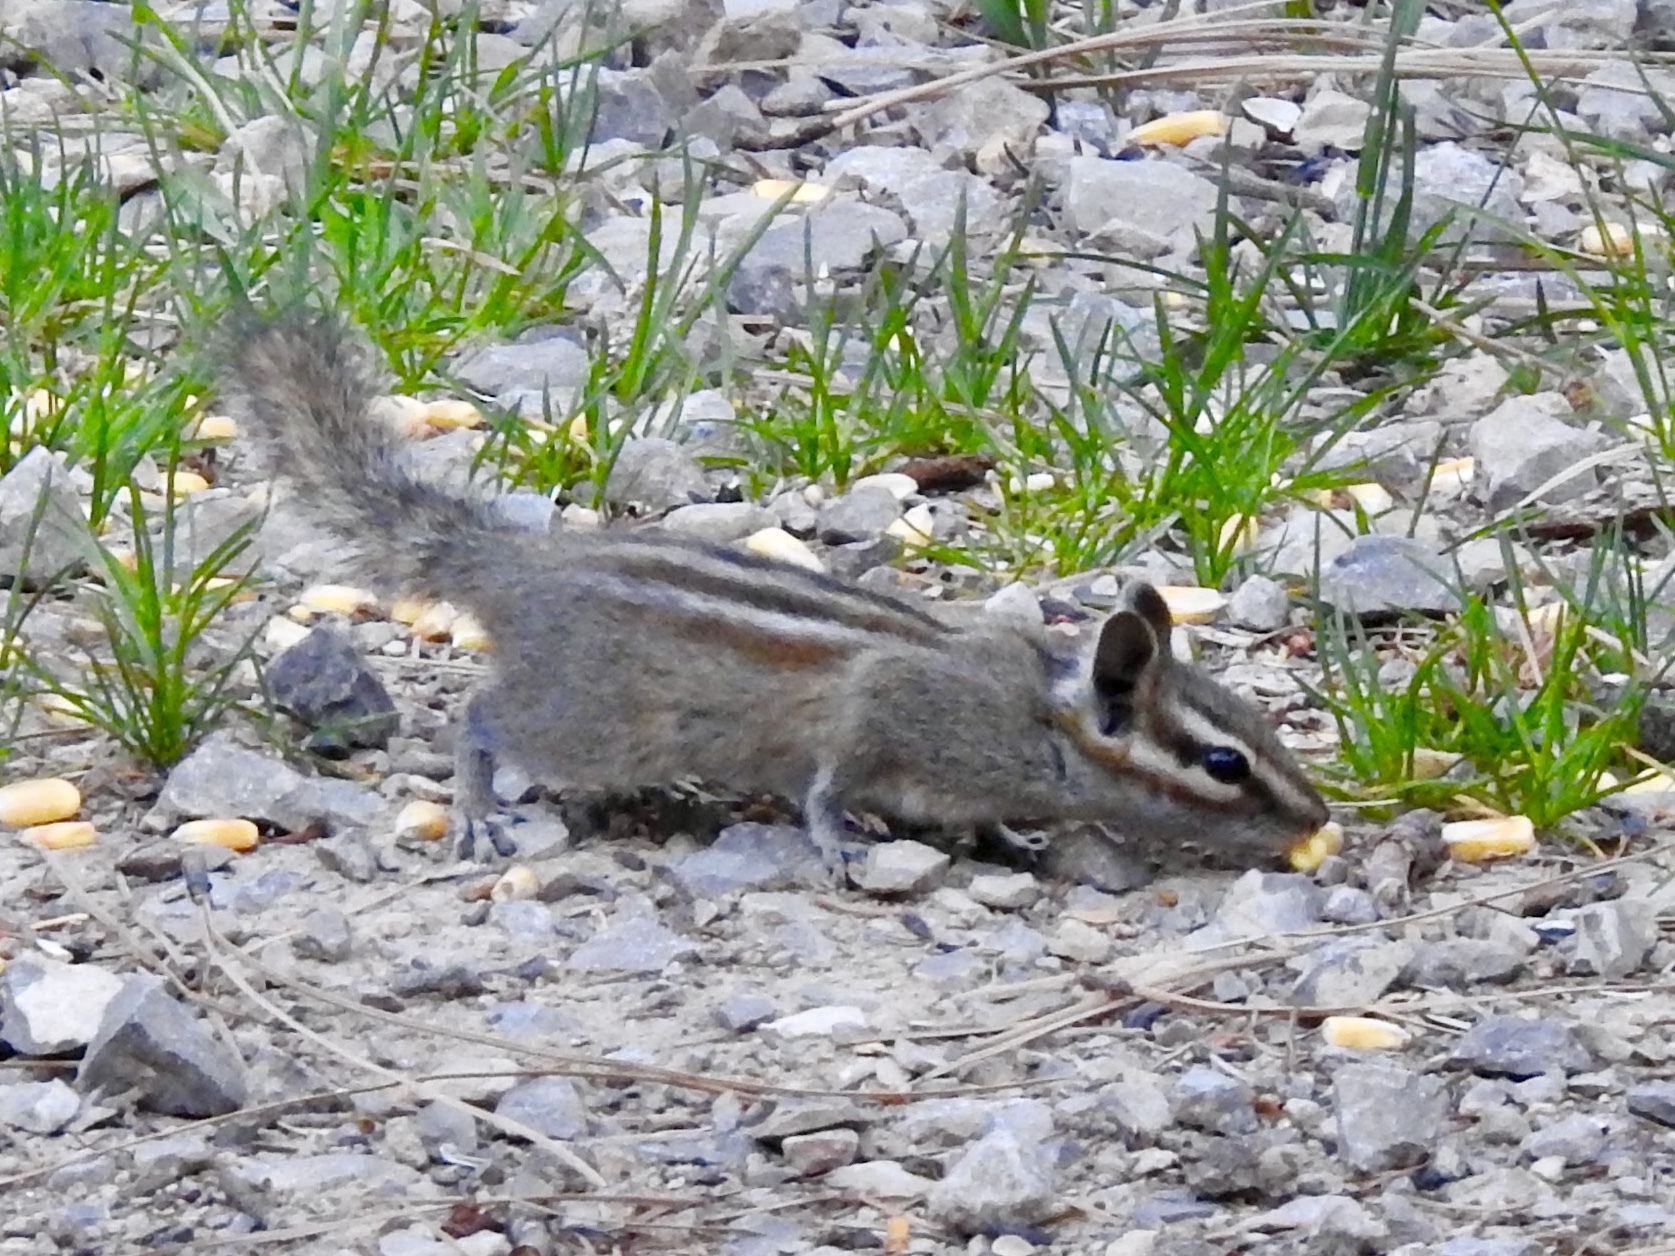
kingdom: Animalia
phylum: Chordata
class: Mammalia
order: Rodentia
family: Sciuridae
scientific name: Sciuridae
